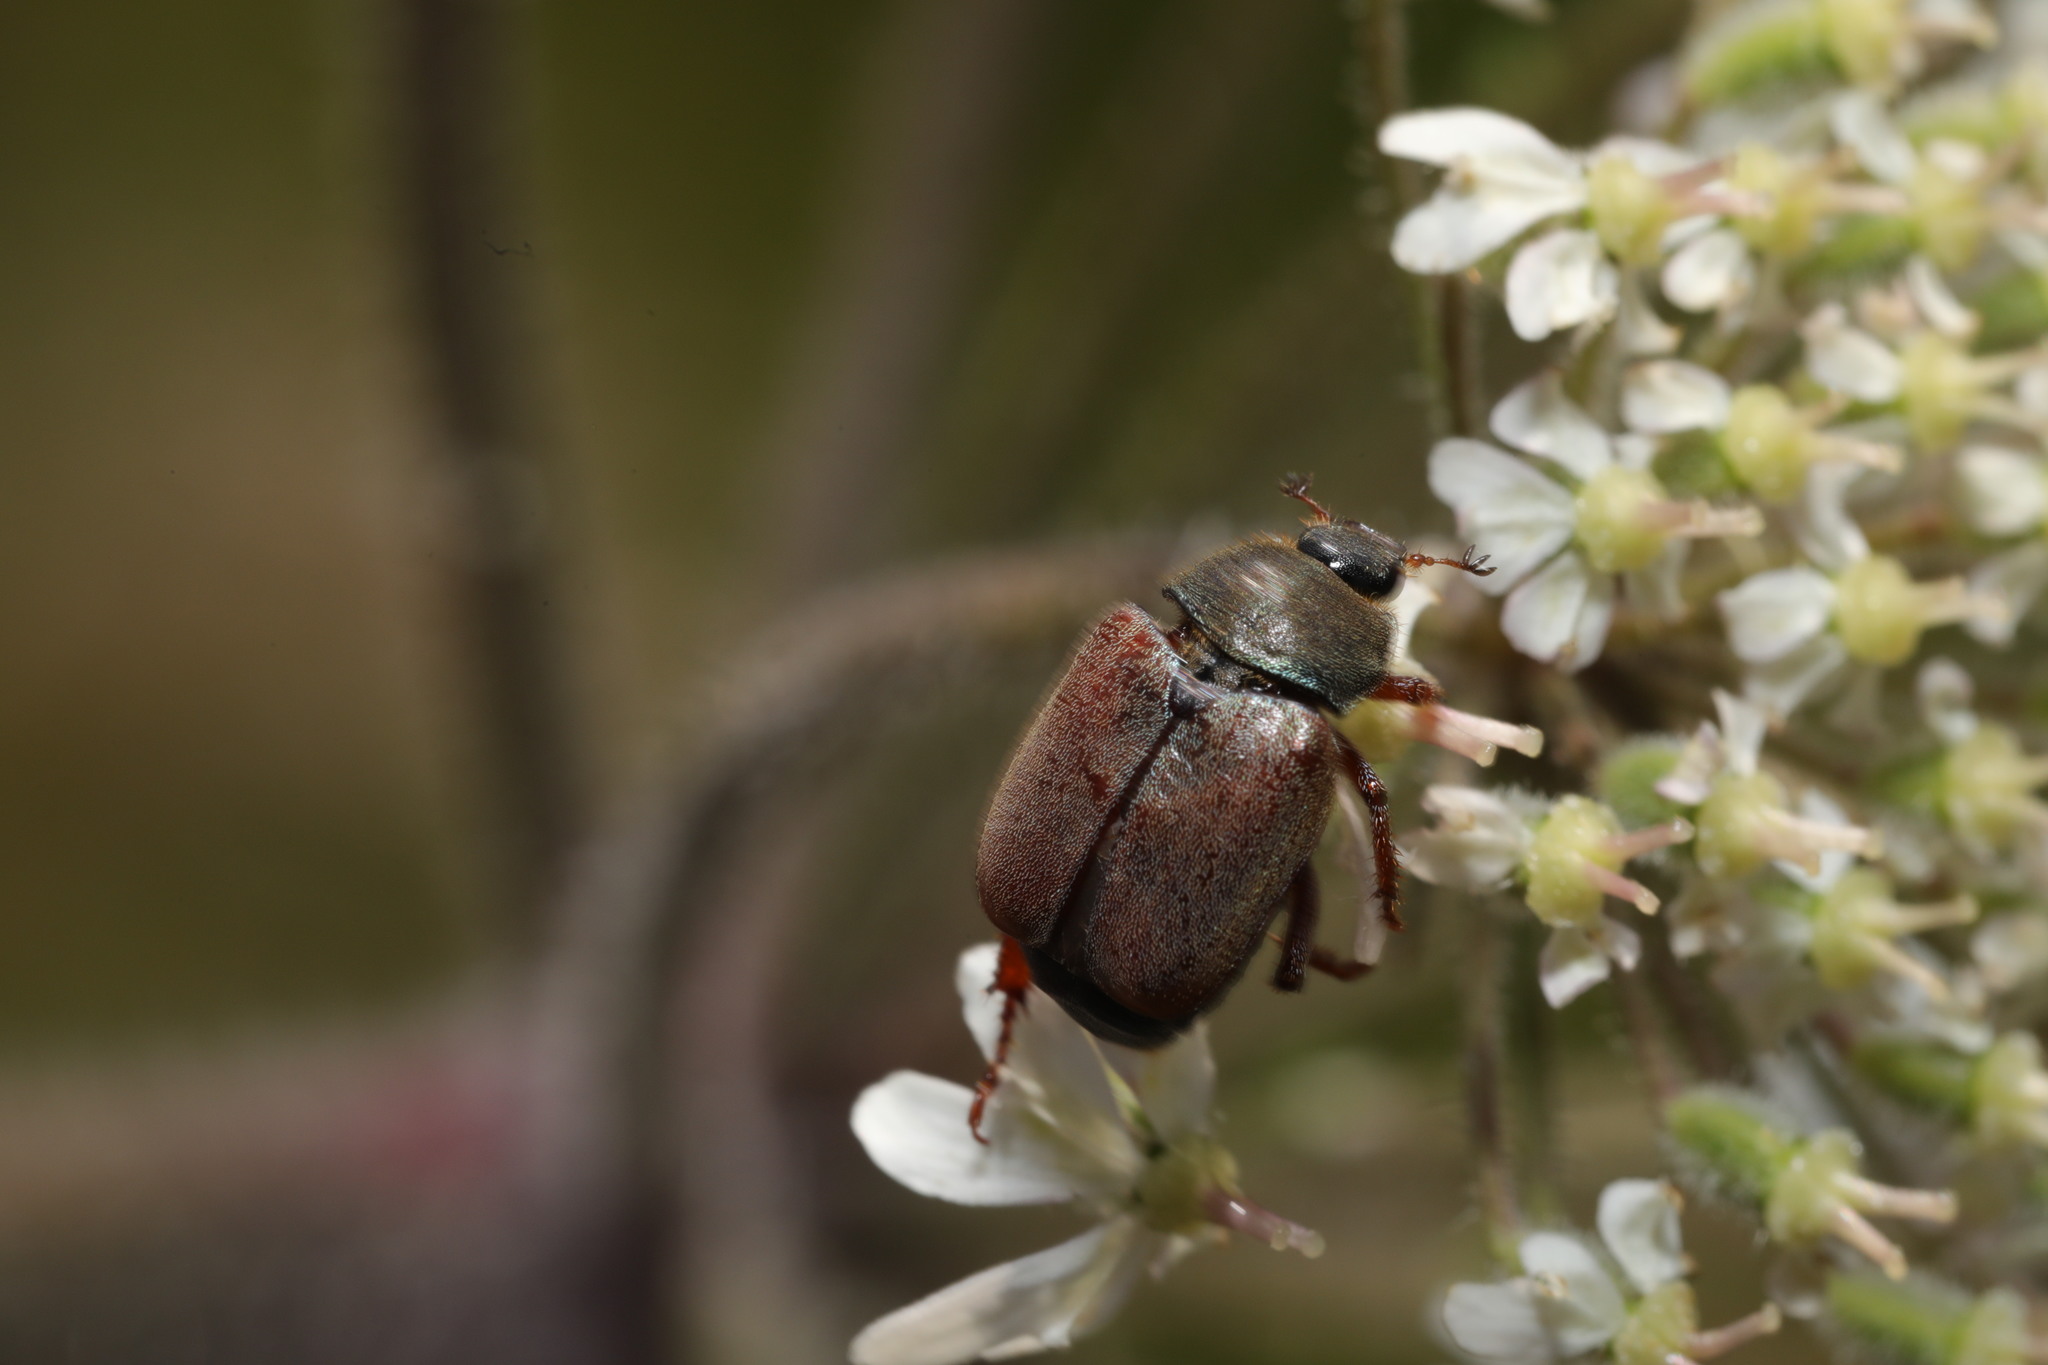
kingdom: Animalia
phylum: Arthropoda
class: Insecta
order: Coleoptera
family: Scarabaeidae
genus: Hoplia
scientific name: Hoplia philanthus
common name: Welsh chafer
